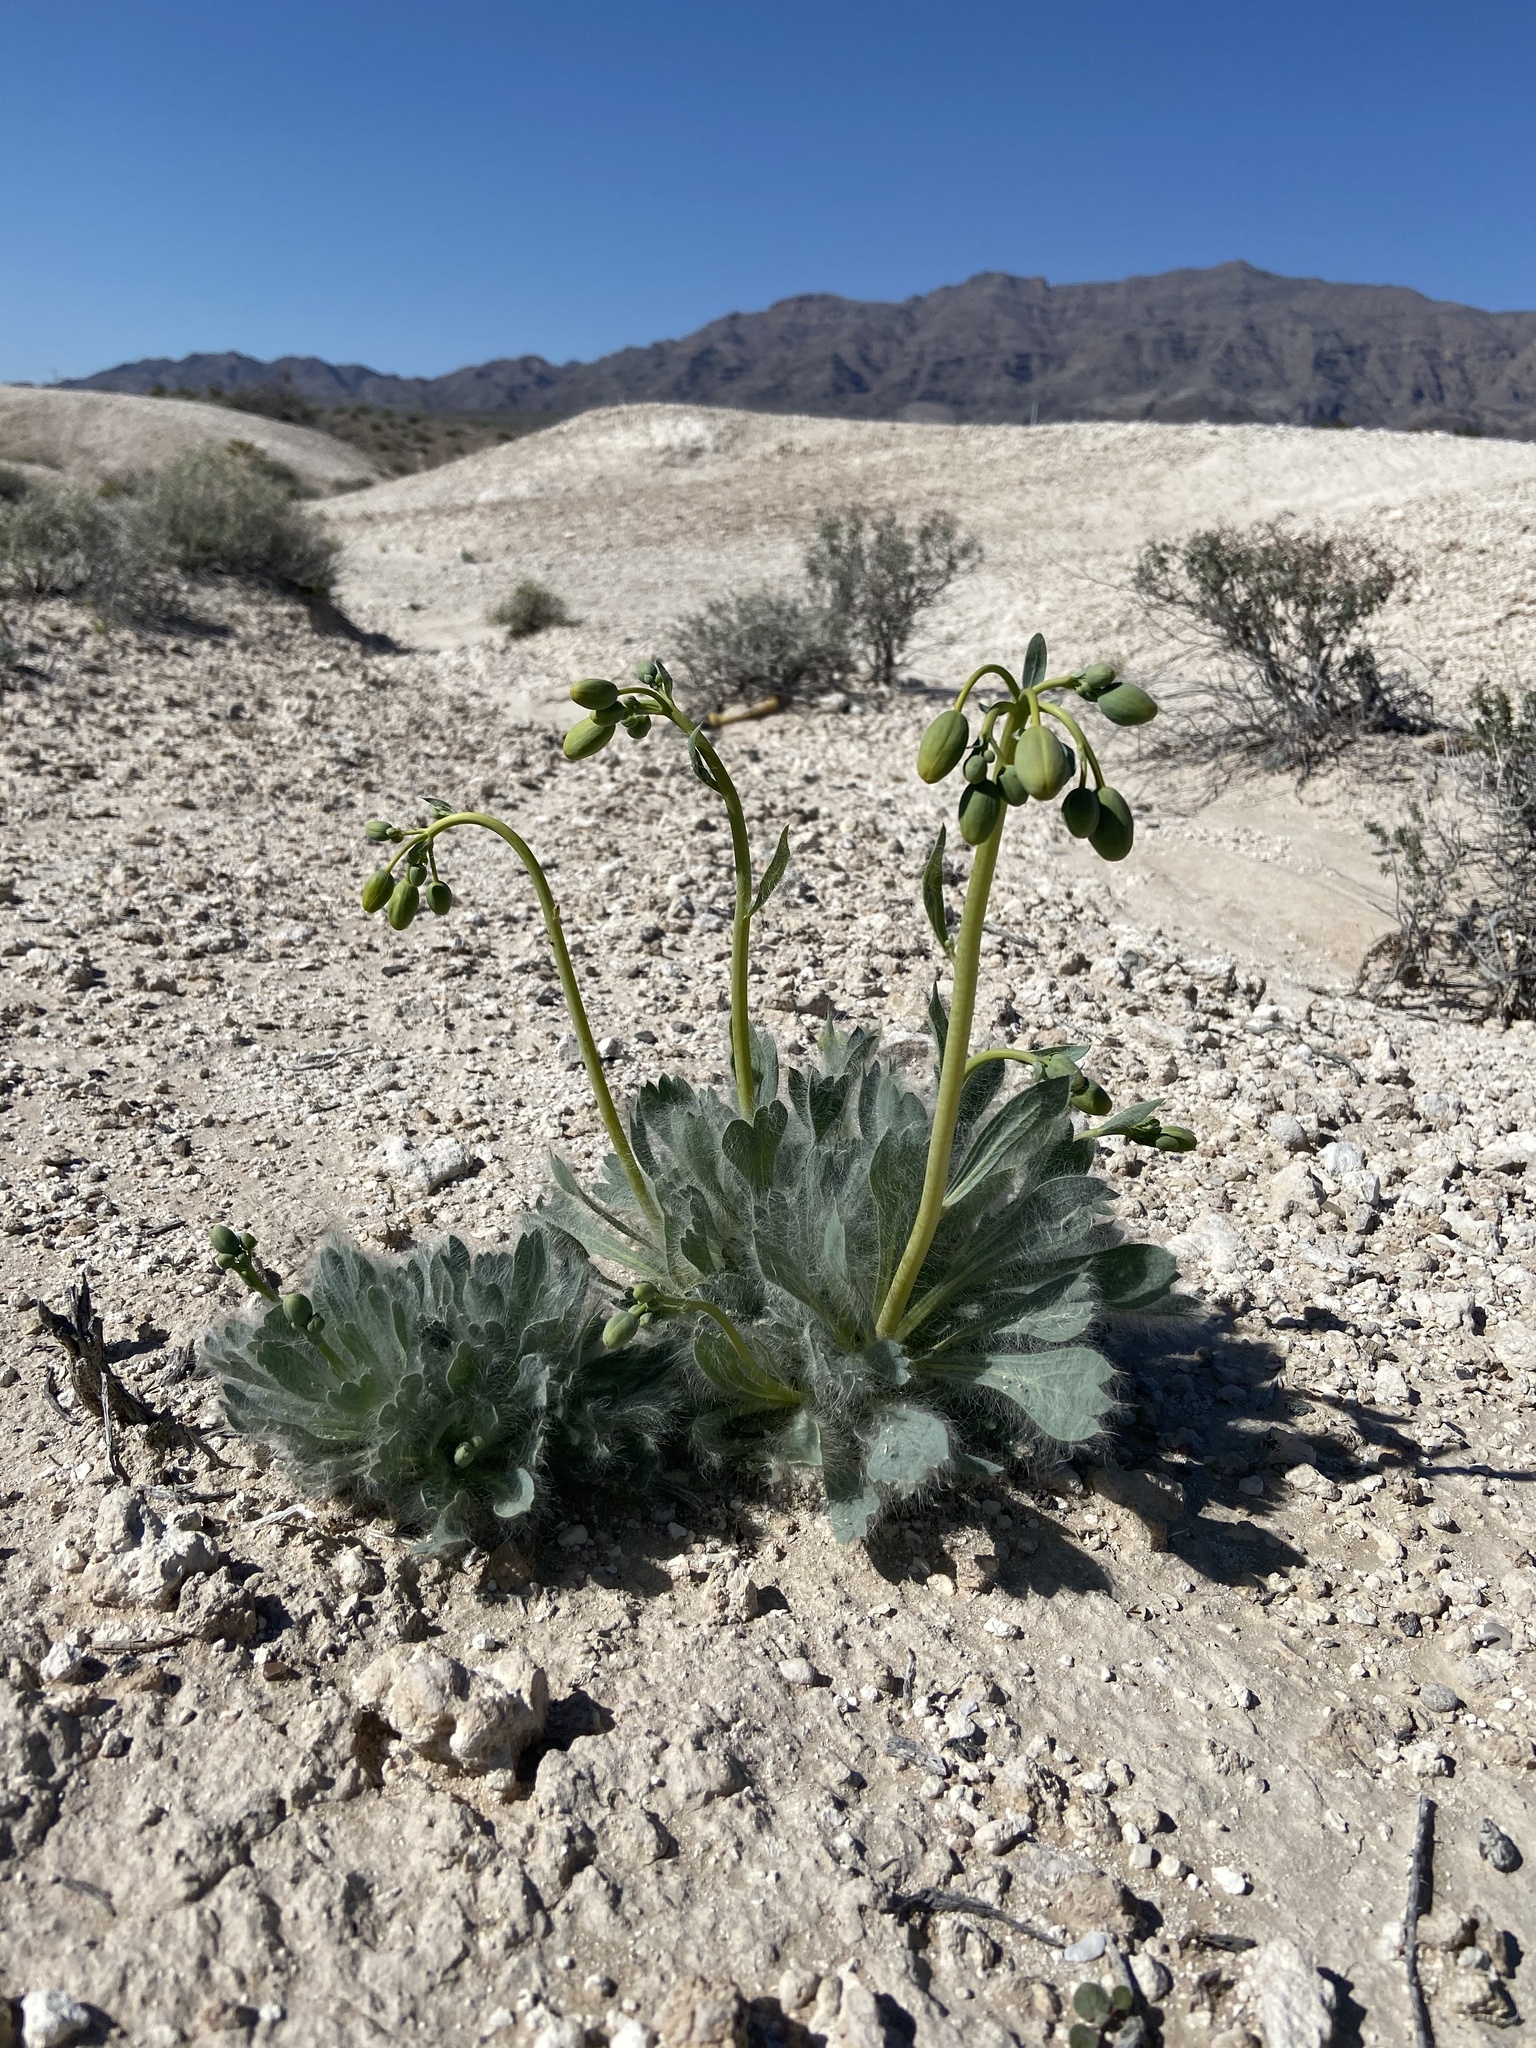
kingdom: Plantae
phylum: Tracheophyta
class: Magnoliopsida
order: Ranunculales
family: Papaveraceae
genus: Arctomecon
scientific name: Arctomecon californicum
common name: Golden bearclaw-poppy
